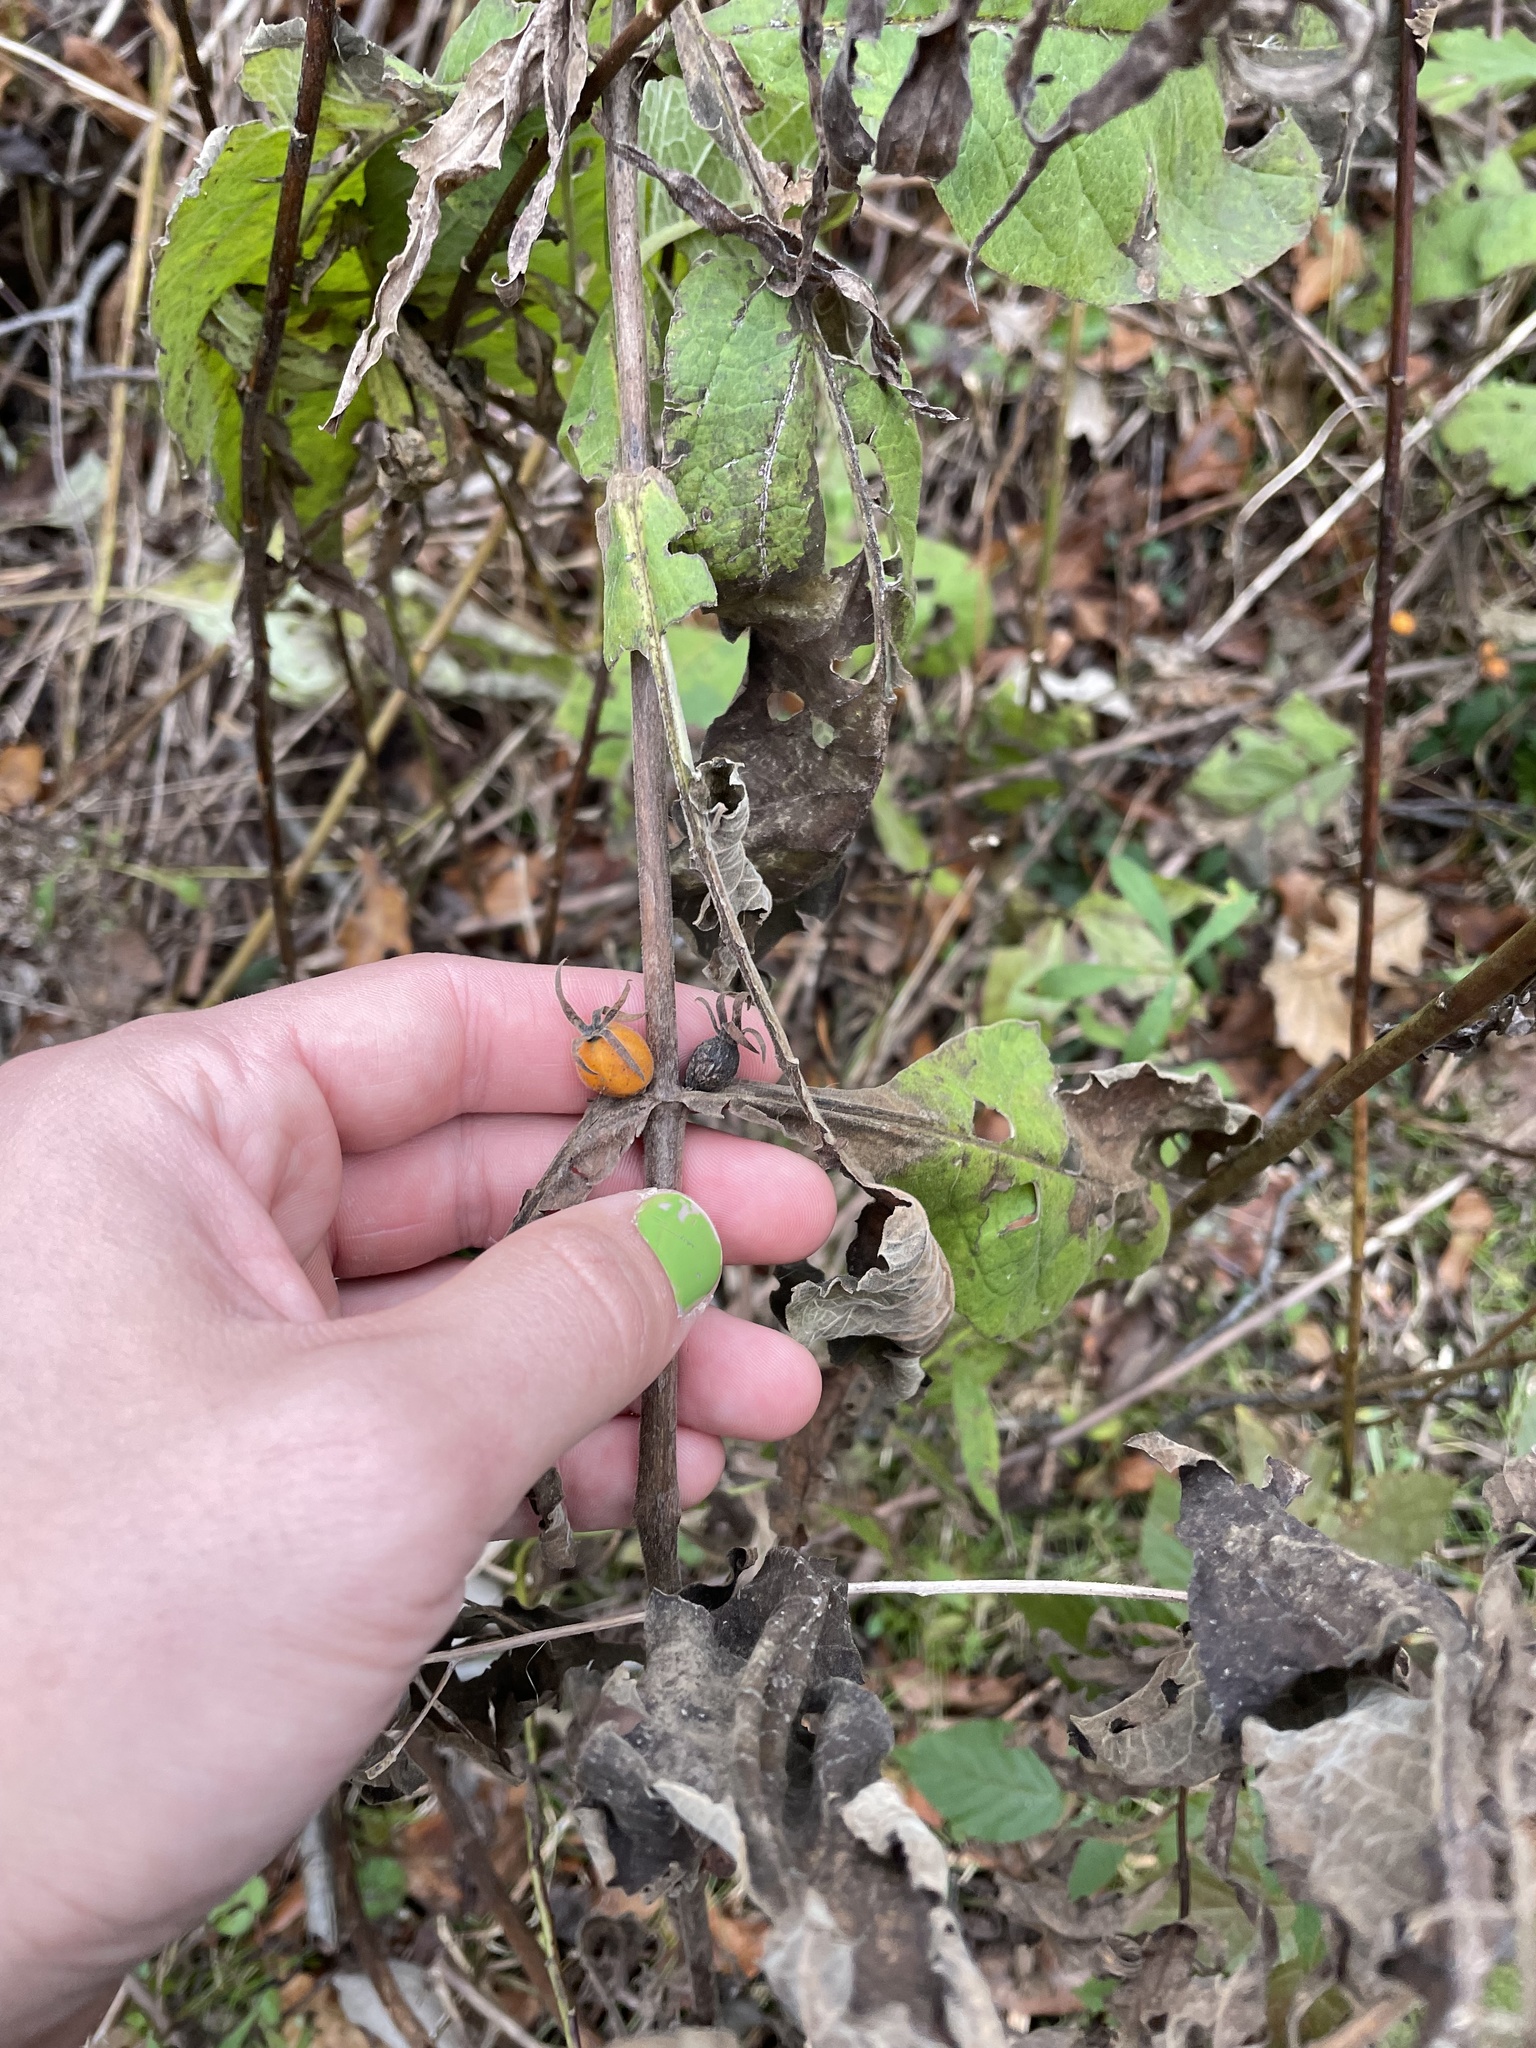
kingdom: Plantae
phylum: Tracheophyta
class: Magnoliopsida
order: Dipsacales
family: Caprifoliaceae
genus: Triosteum
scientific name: Triosteum aurantiacum
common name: Coffee tinker's-weed
